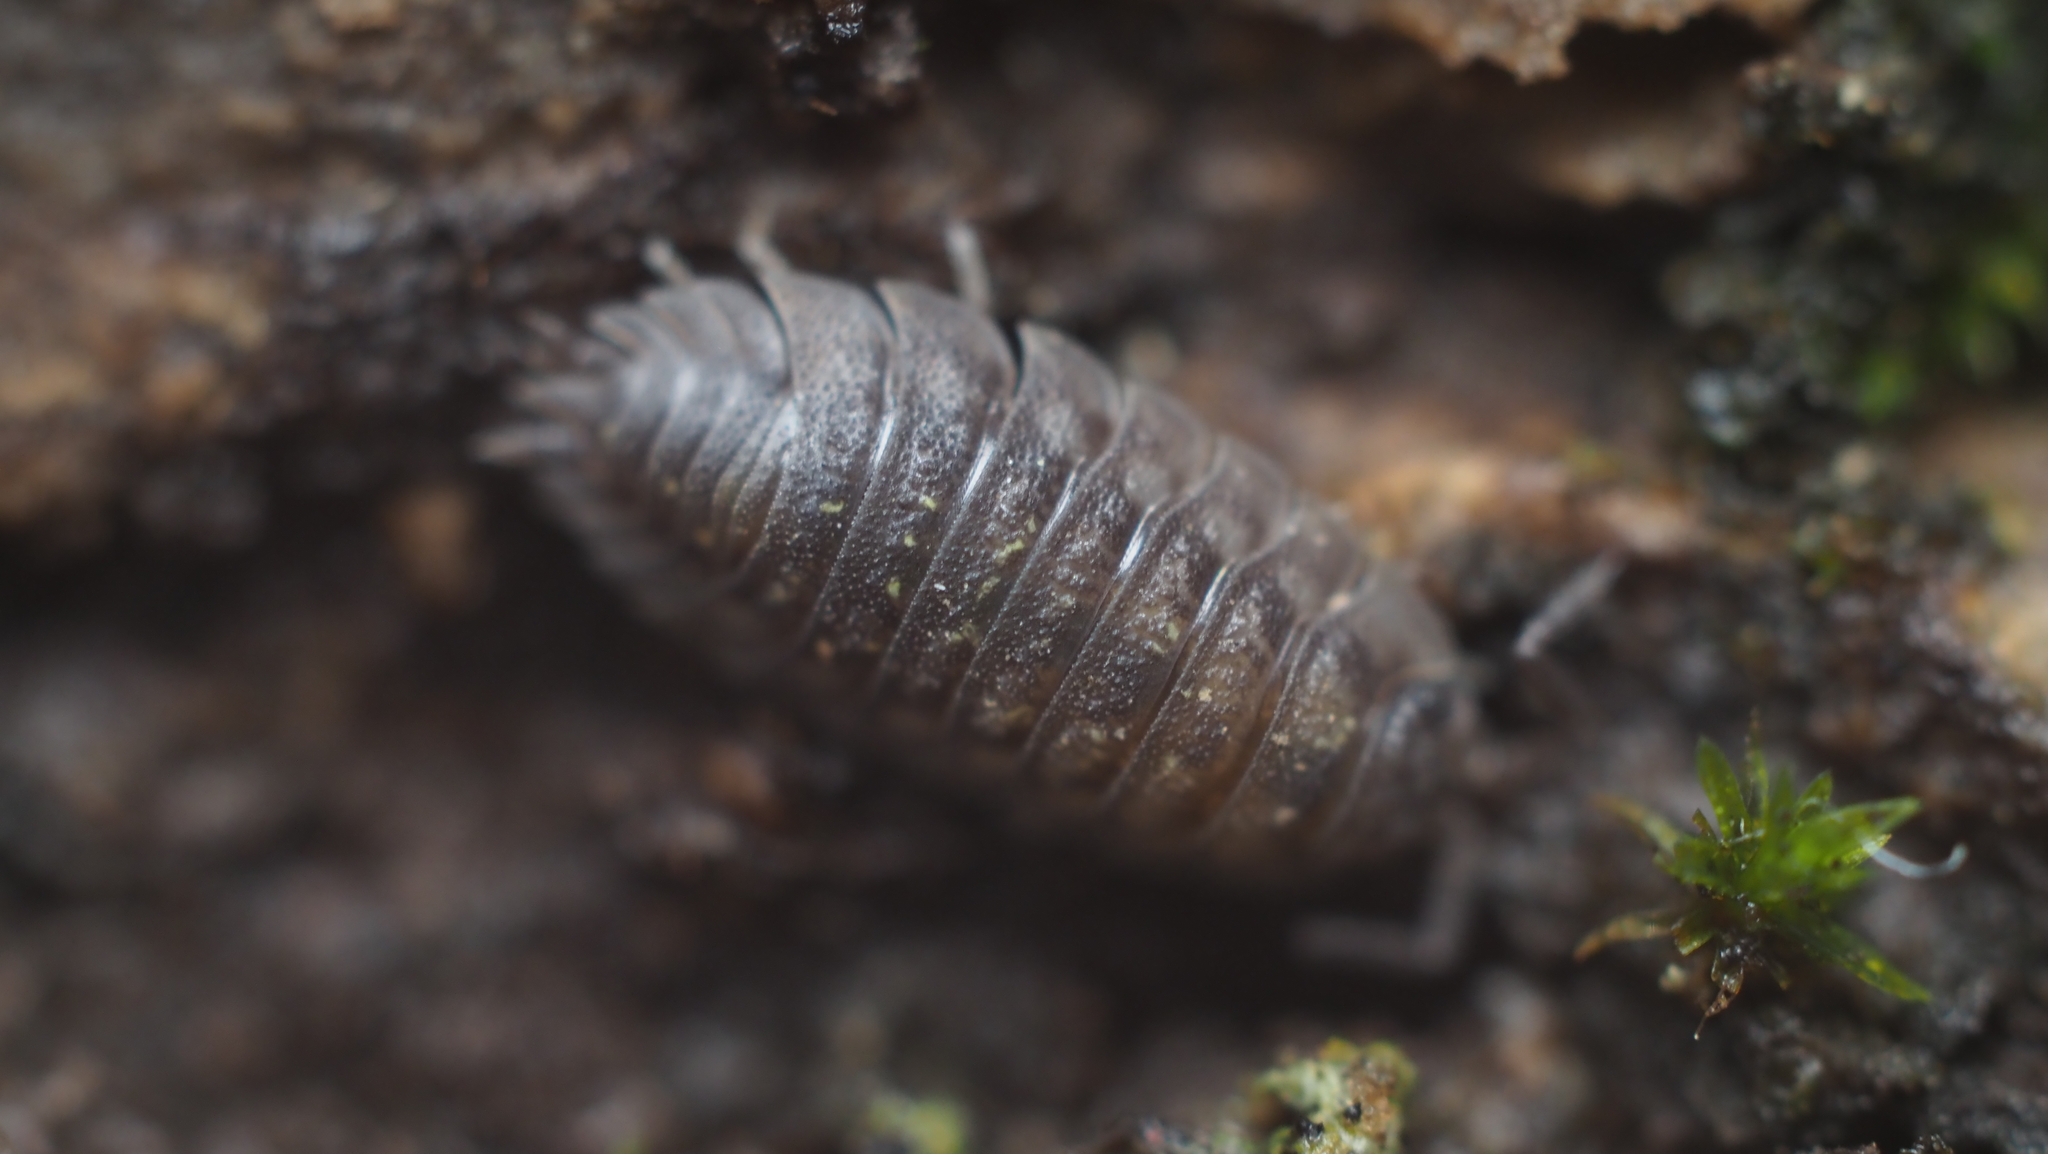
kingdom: Animalia
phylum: Arthropoda
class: Malacostraca
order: Isopoda
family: Oniscidae
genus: Oniscus
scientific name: Oniscus asellus
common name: Common shiny woodlouse
